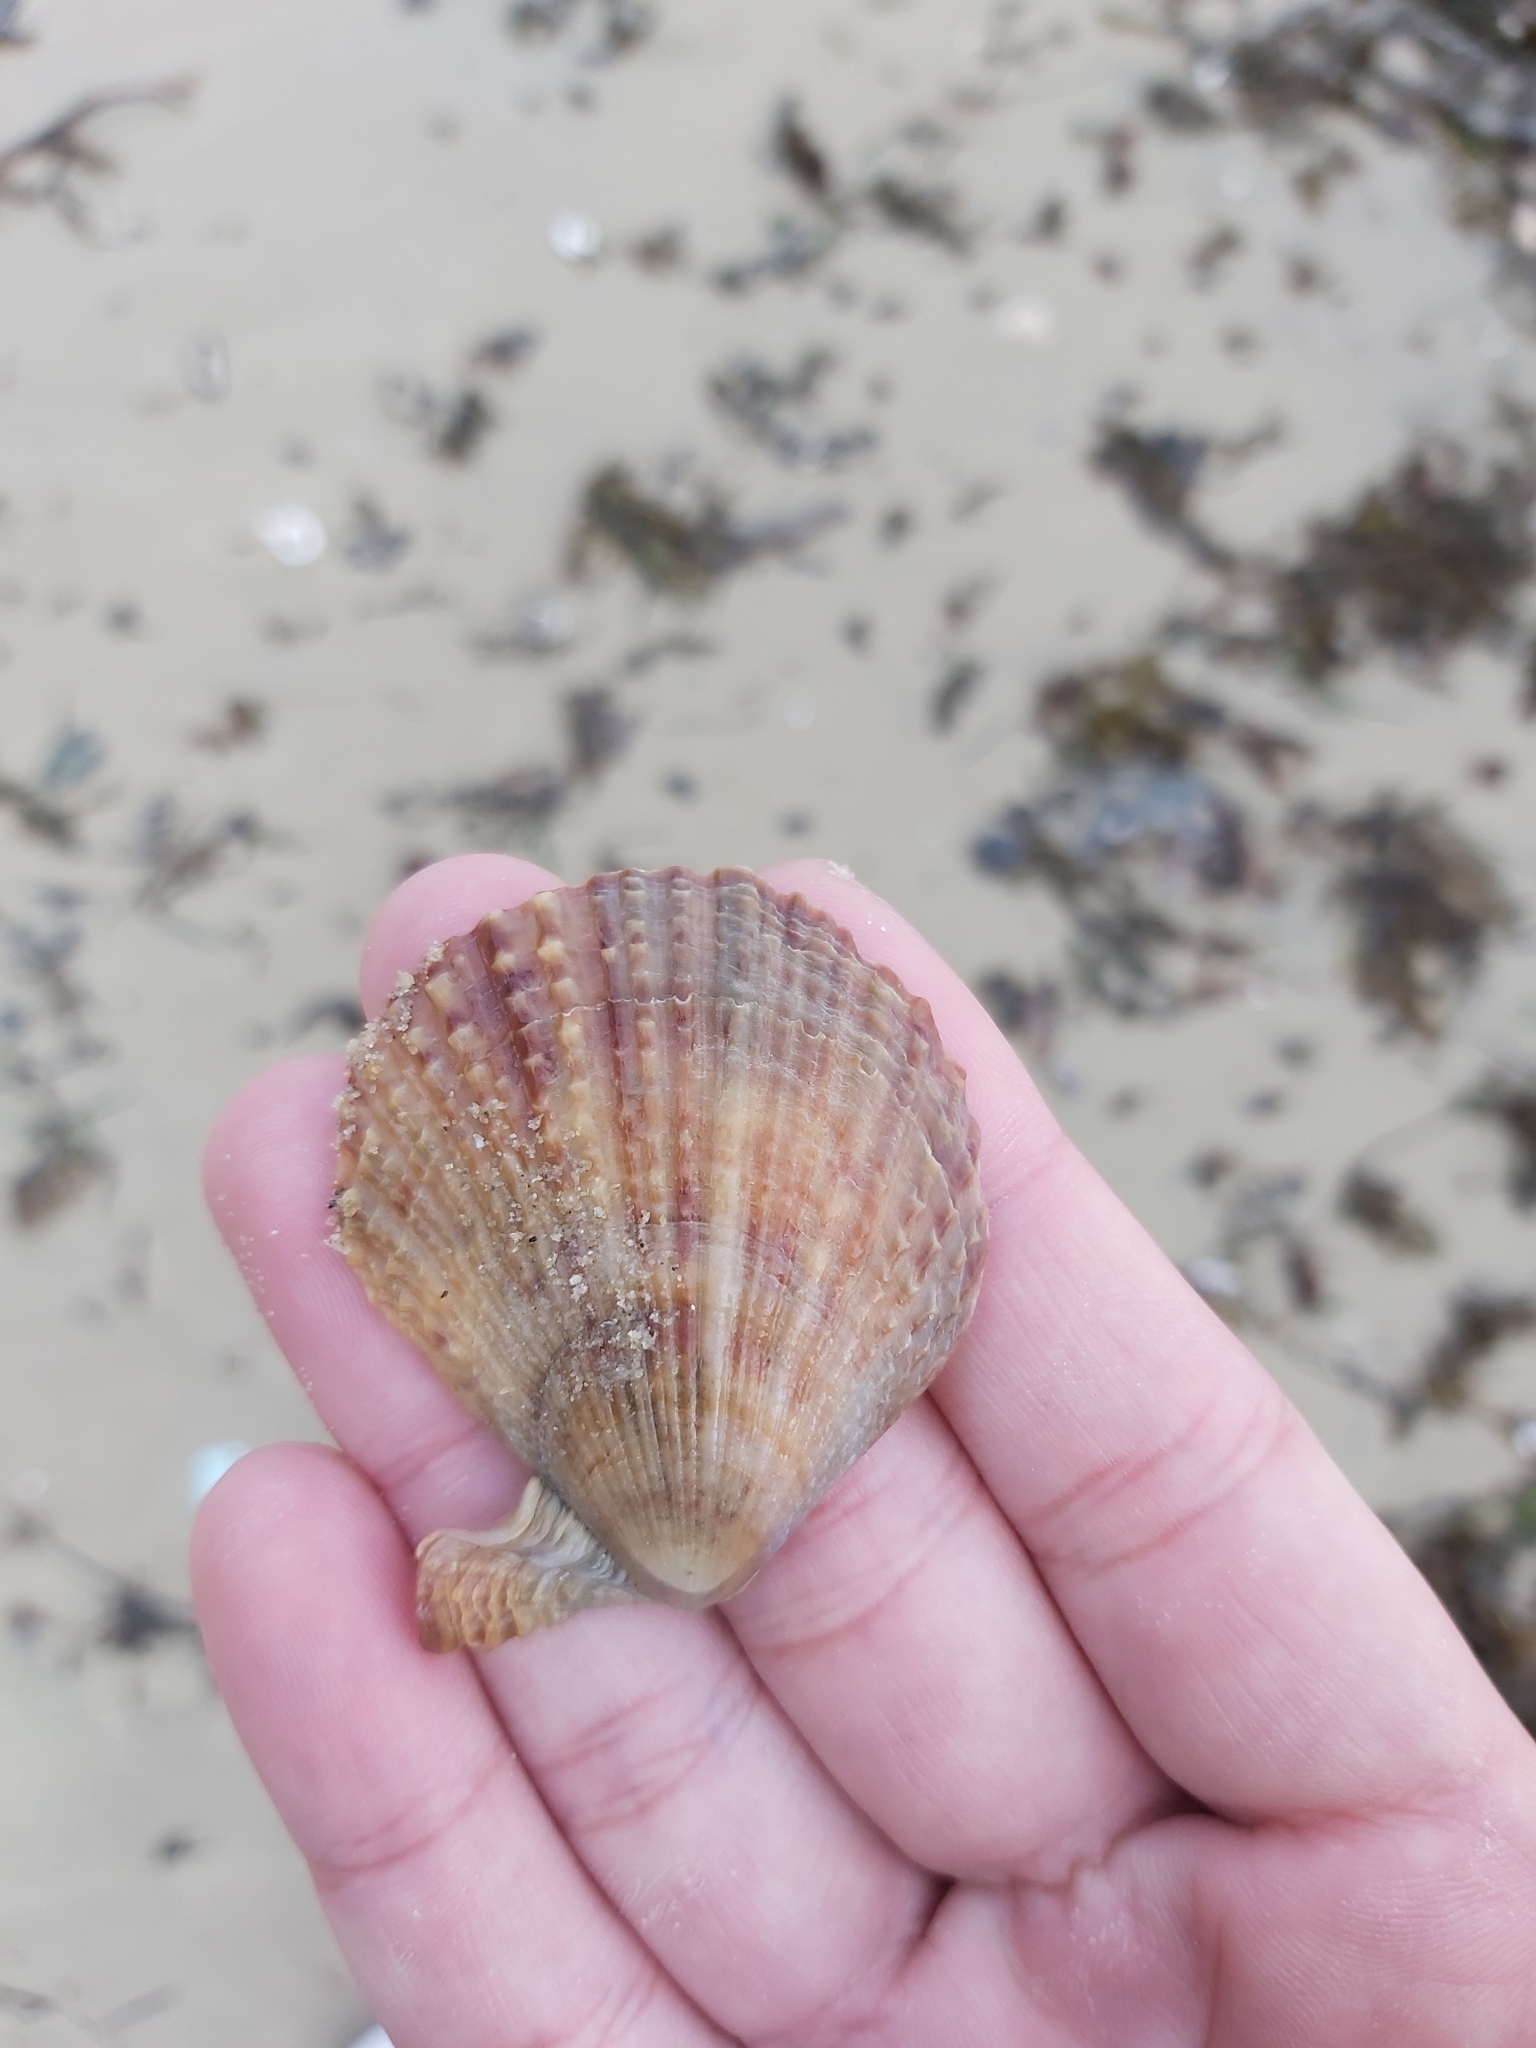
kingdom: Animalia
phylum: Mollusca
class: Bivalvia
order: Pectinida
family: Pectinidae
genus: Scaeochlamys
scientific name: Scaeochlamys livida
